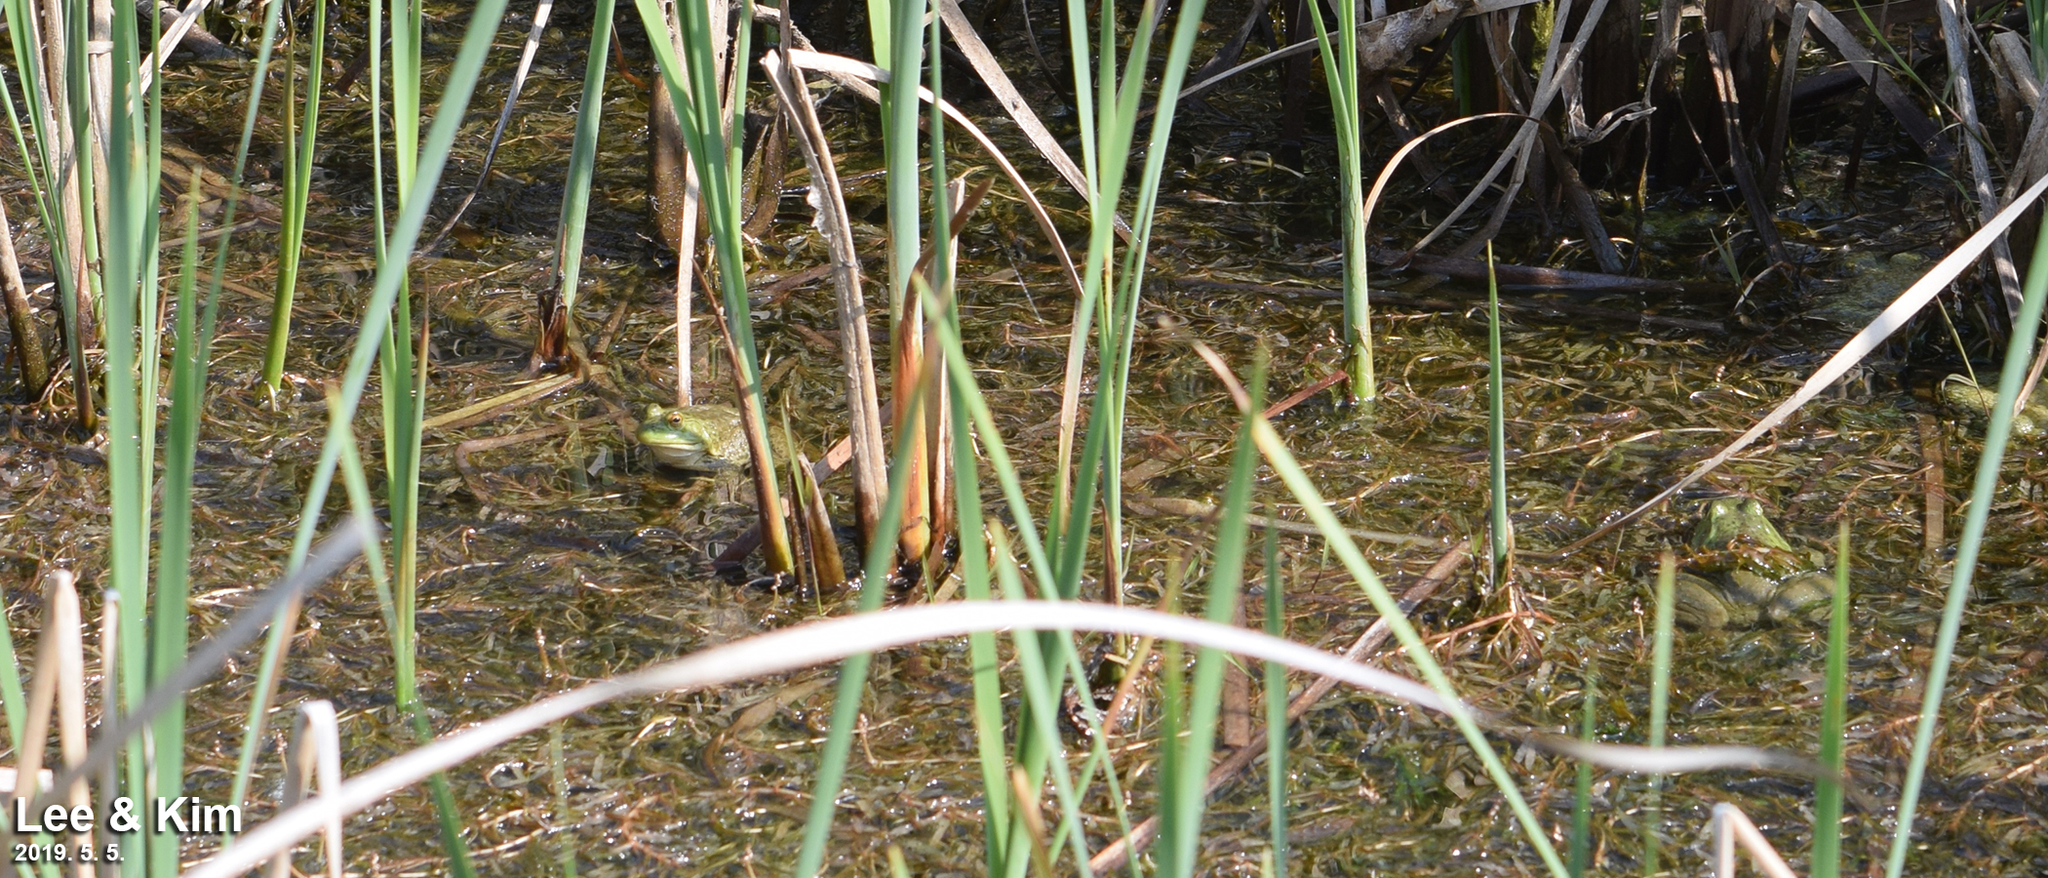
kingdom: Animalia
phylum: Chordata
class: Amphibia
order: Anura
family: Ranidae
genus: Lithobates
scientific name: Lithobates catesbeianus
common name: American bullfrog
